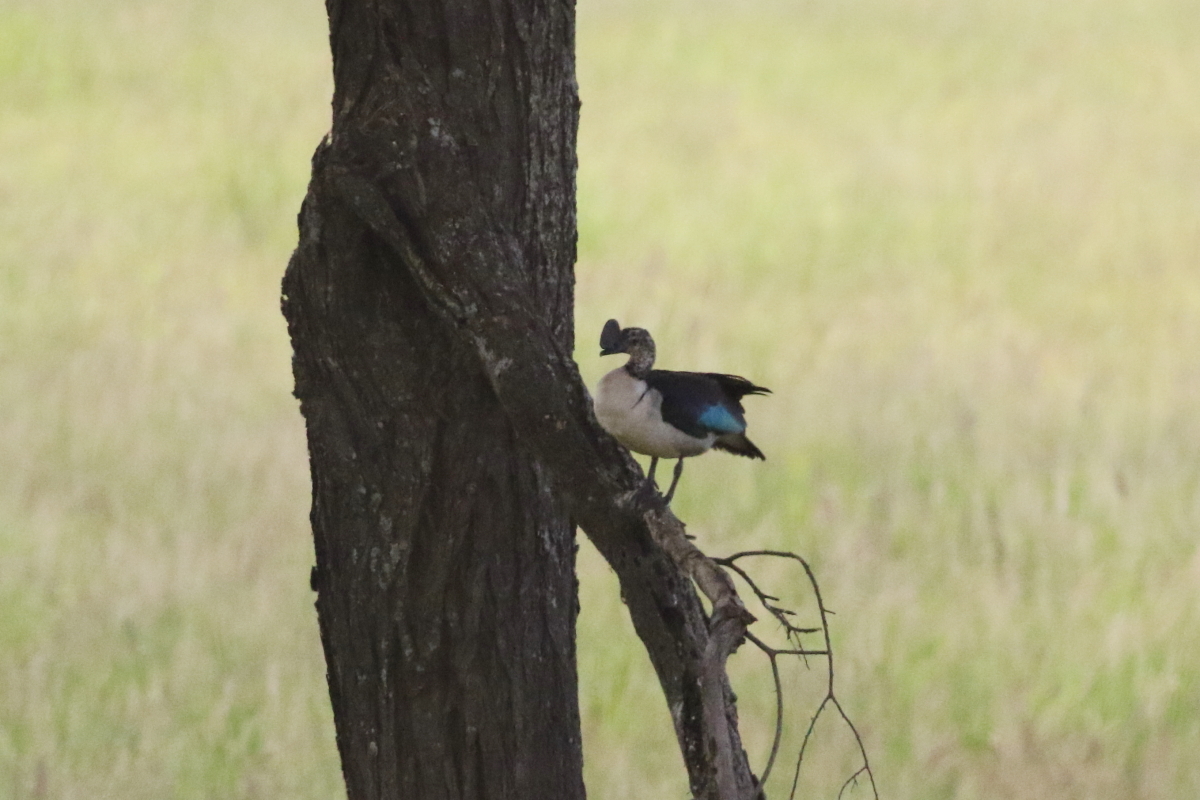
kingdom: Animalia
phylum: Chordata
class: Aves
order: Anseriformes
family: Anatidae
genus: Sarkidiornis
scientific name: Sarkidiornis melanotos
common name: Comb duck
